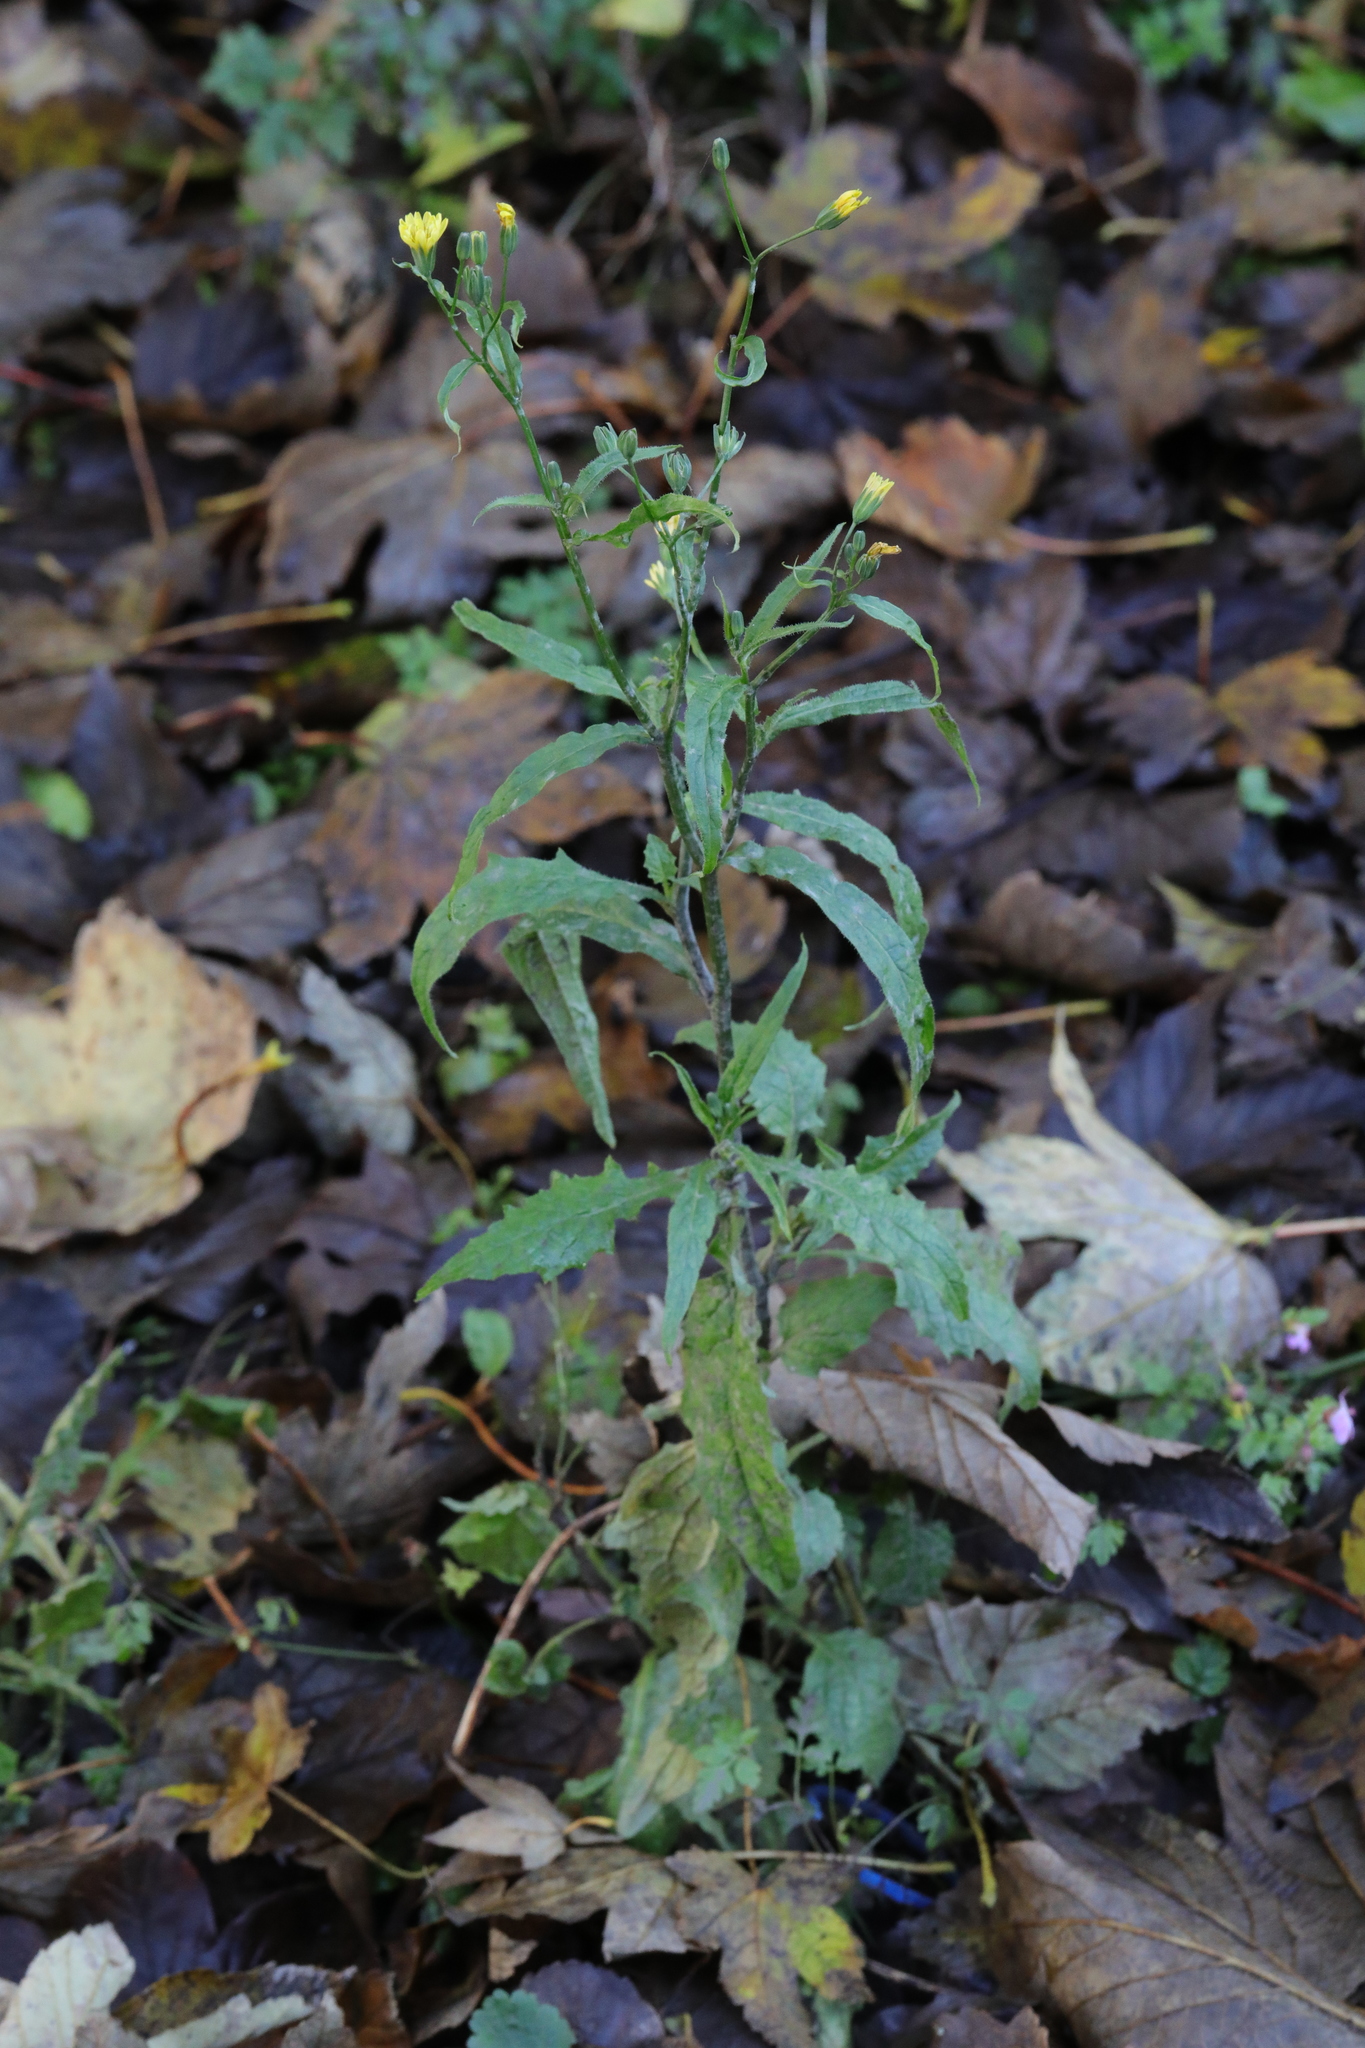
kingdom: Plantae
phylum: Tracheophyta
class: Magnoliopsida
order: Asterales
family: Asteraceae
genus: Lapsana
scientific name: Lapsana communis
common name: Nipplewort
